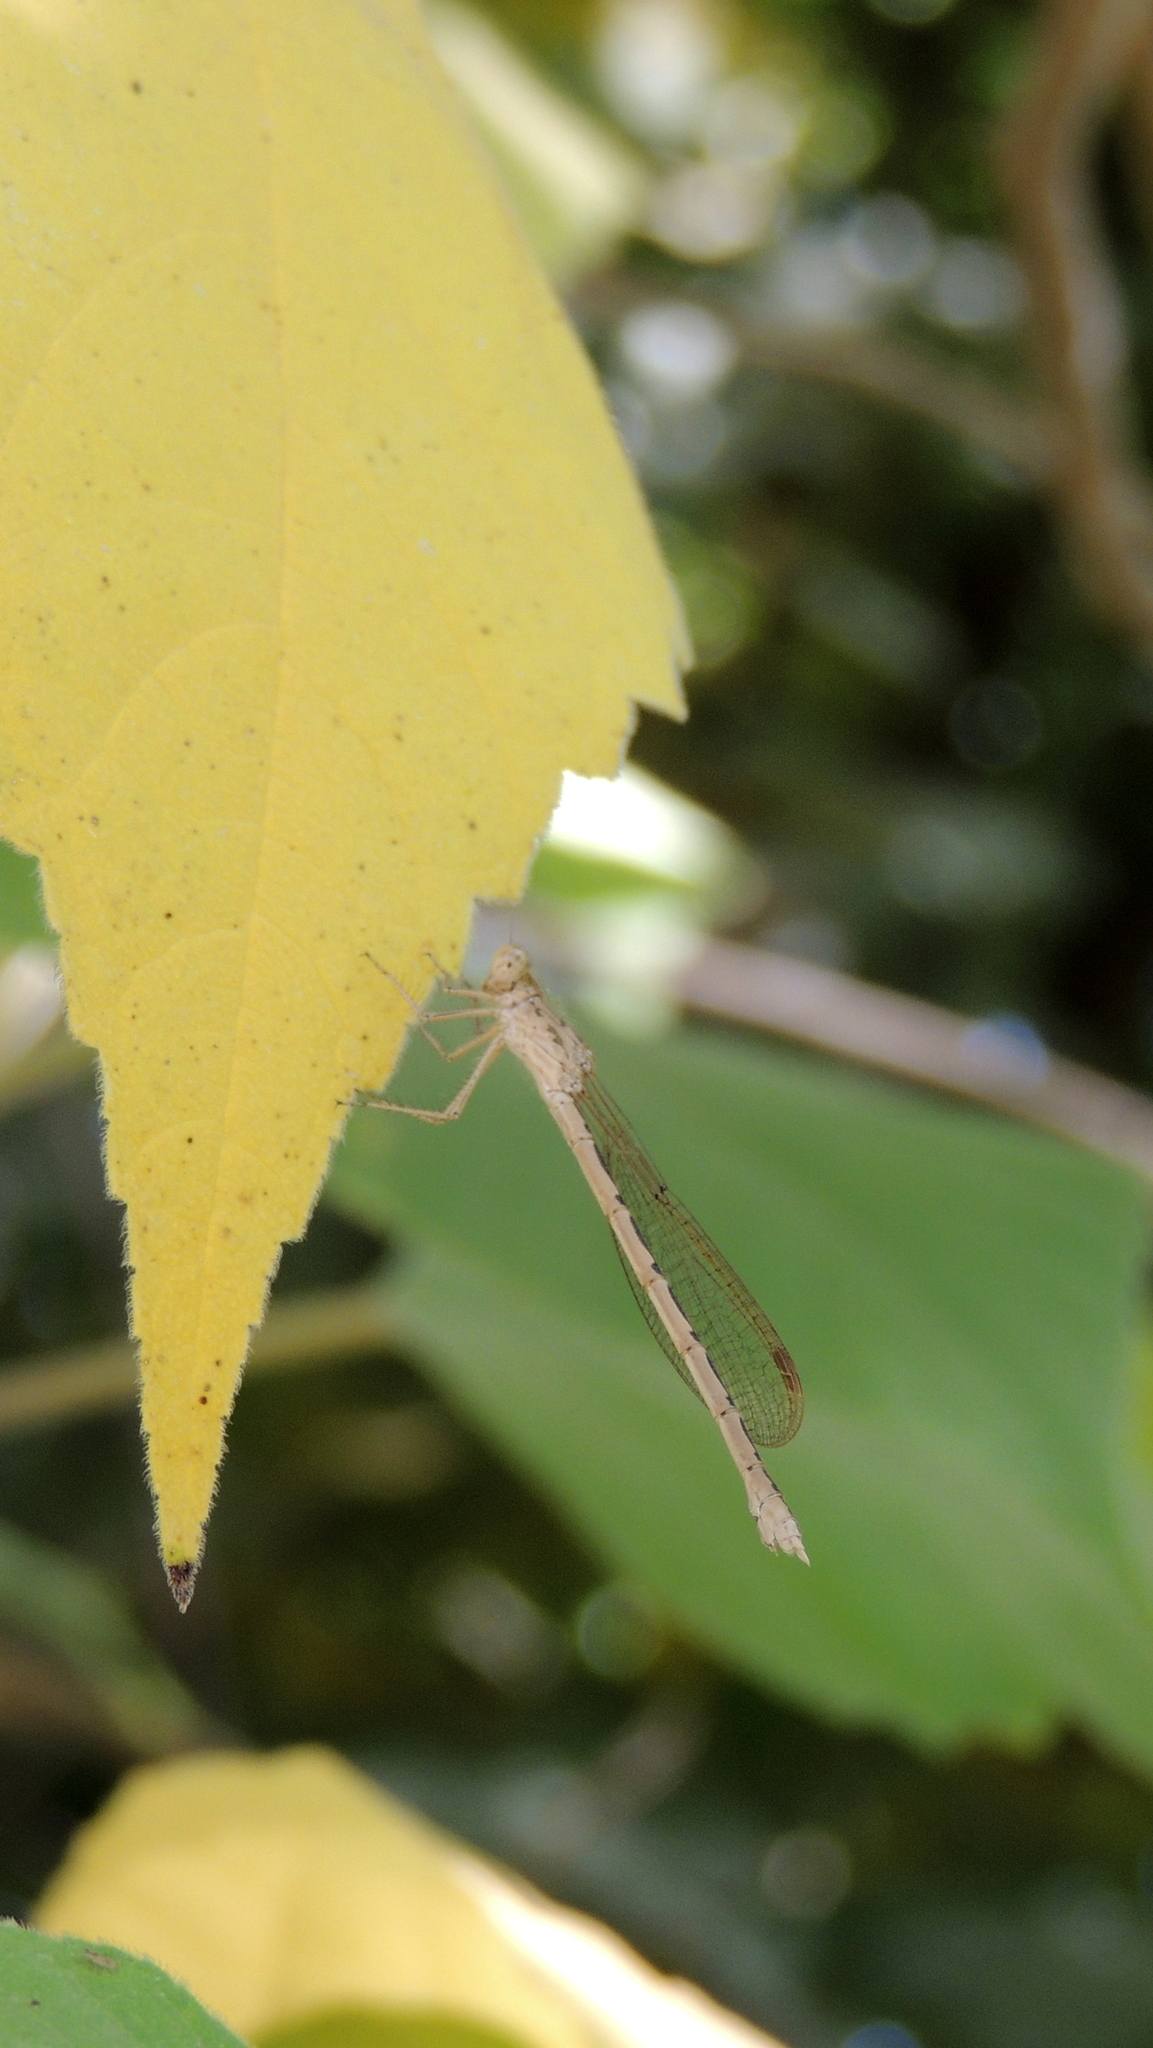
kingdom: Animalia
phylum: Arthropoda
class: Insecta
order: Odonata
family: Lestidae
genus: Sympecma
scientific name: Sympecma gobica
